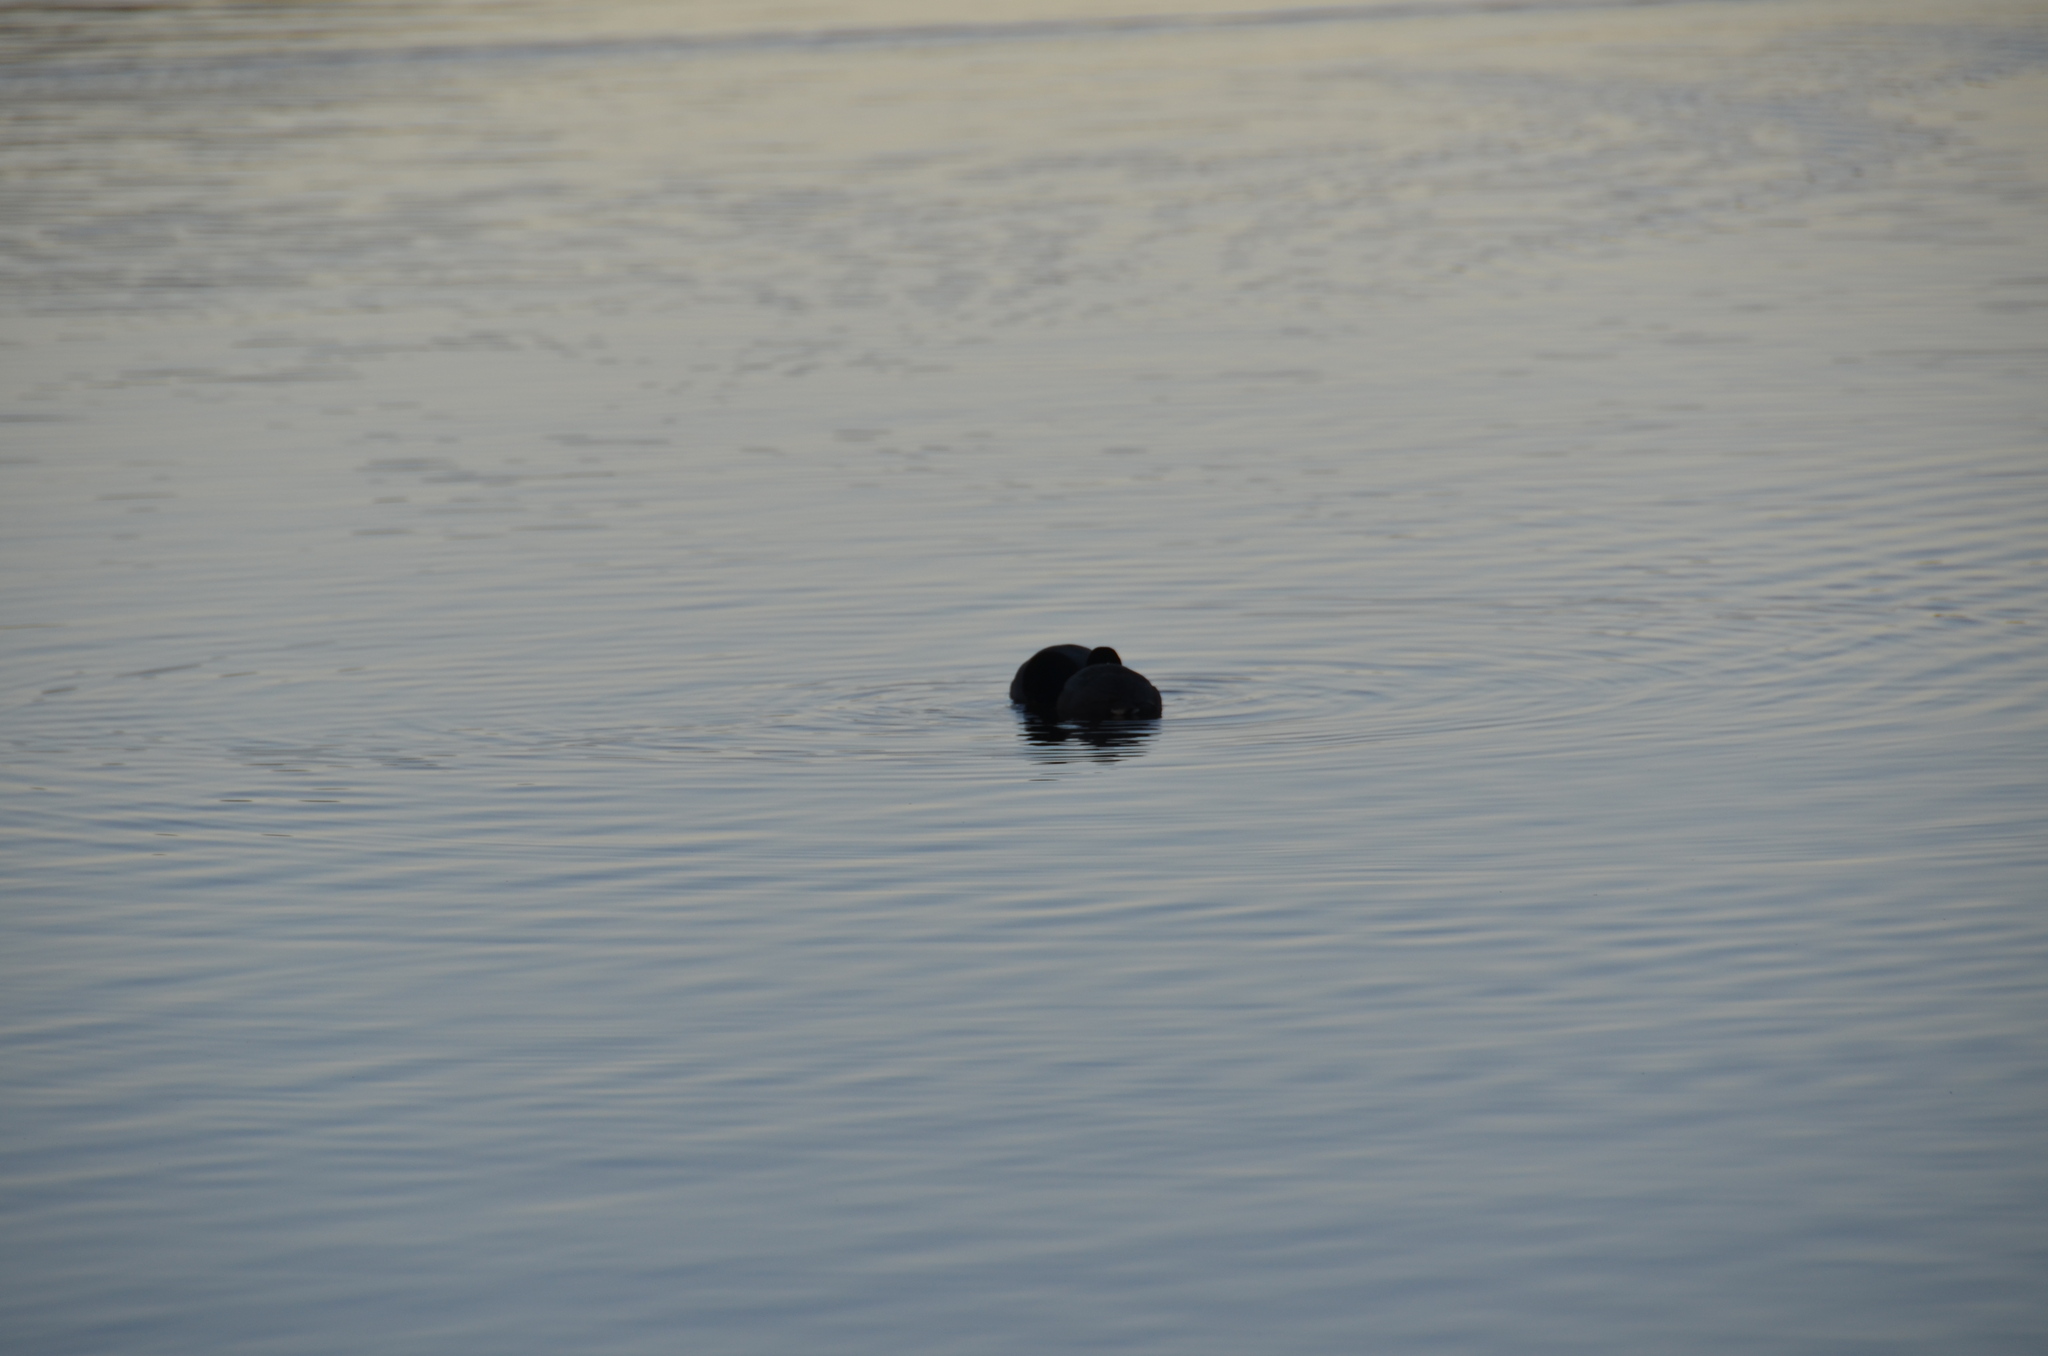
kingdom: Animalia
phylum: Chordata
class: Aves
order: Gruiformes
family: Rallidae
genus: Fulica
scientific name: Fulica americana
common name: American coot
